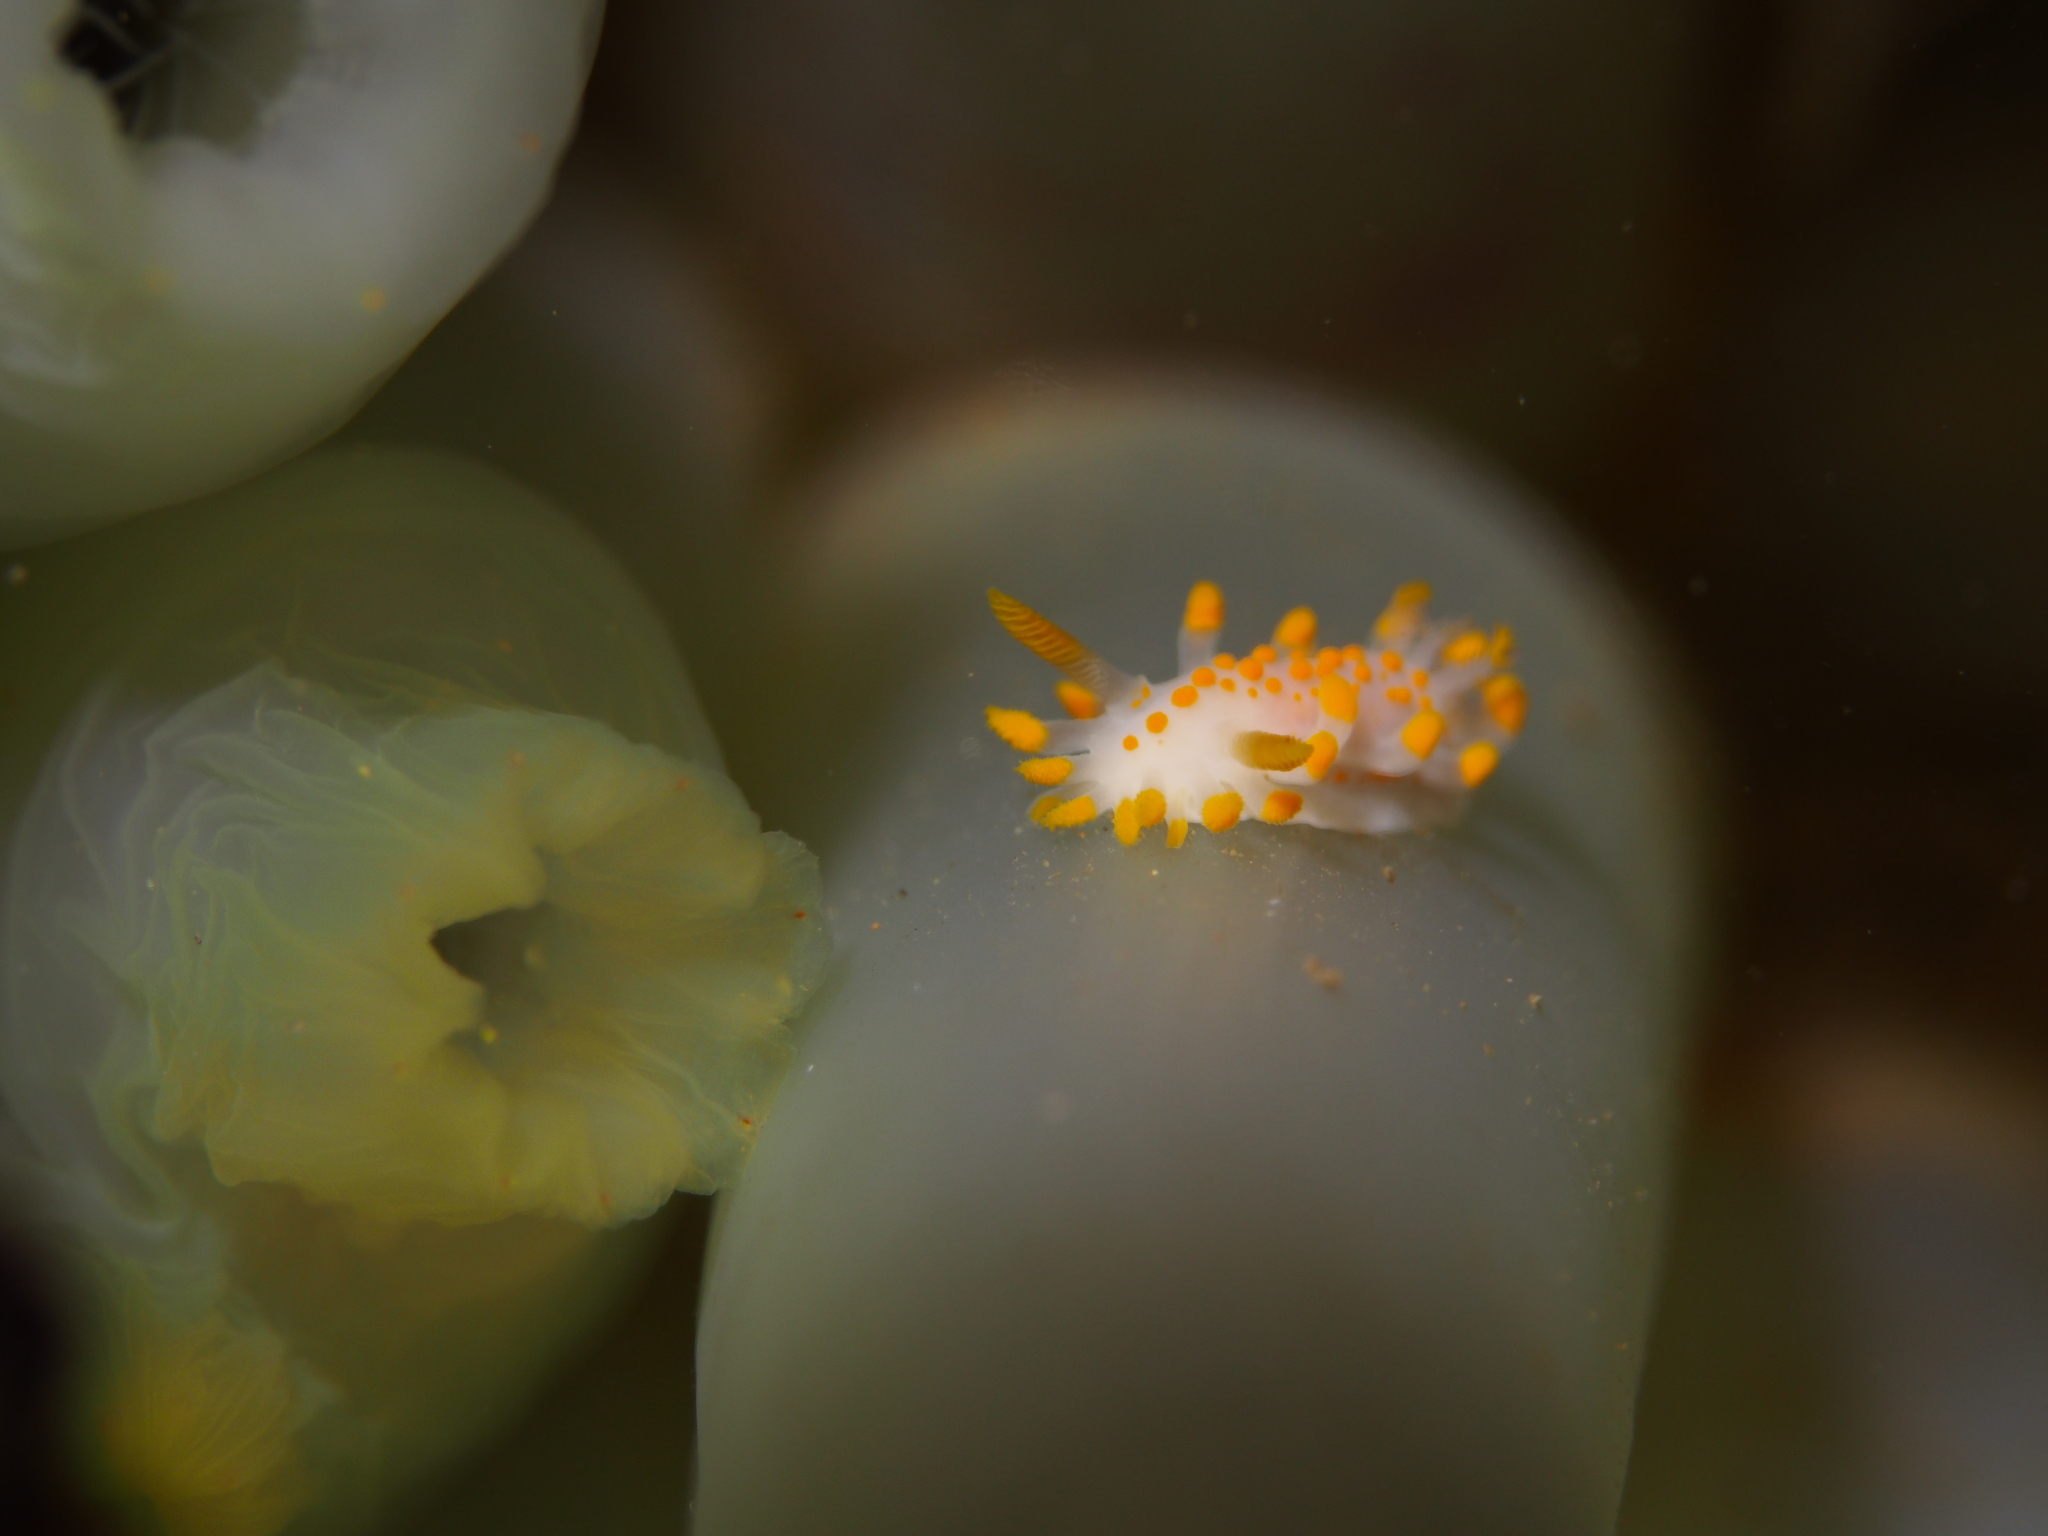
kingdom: Animalia
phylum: Mollusca
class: Gastropoda
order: Nudibranchia
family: Polyceridae
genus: Limacia
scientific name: Limacia clavigera
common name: Orange-clubbed sea slug
